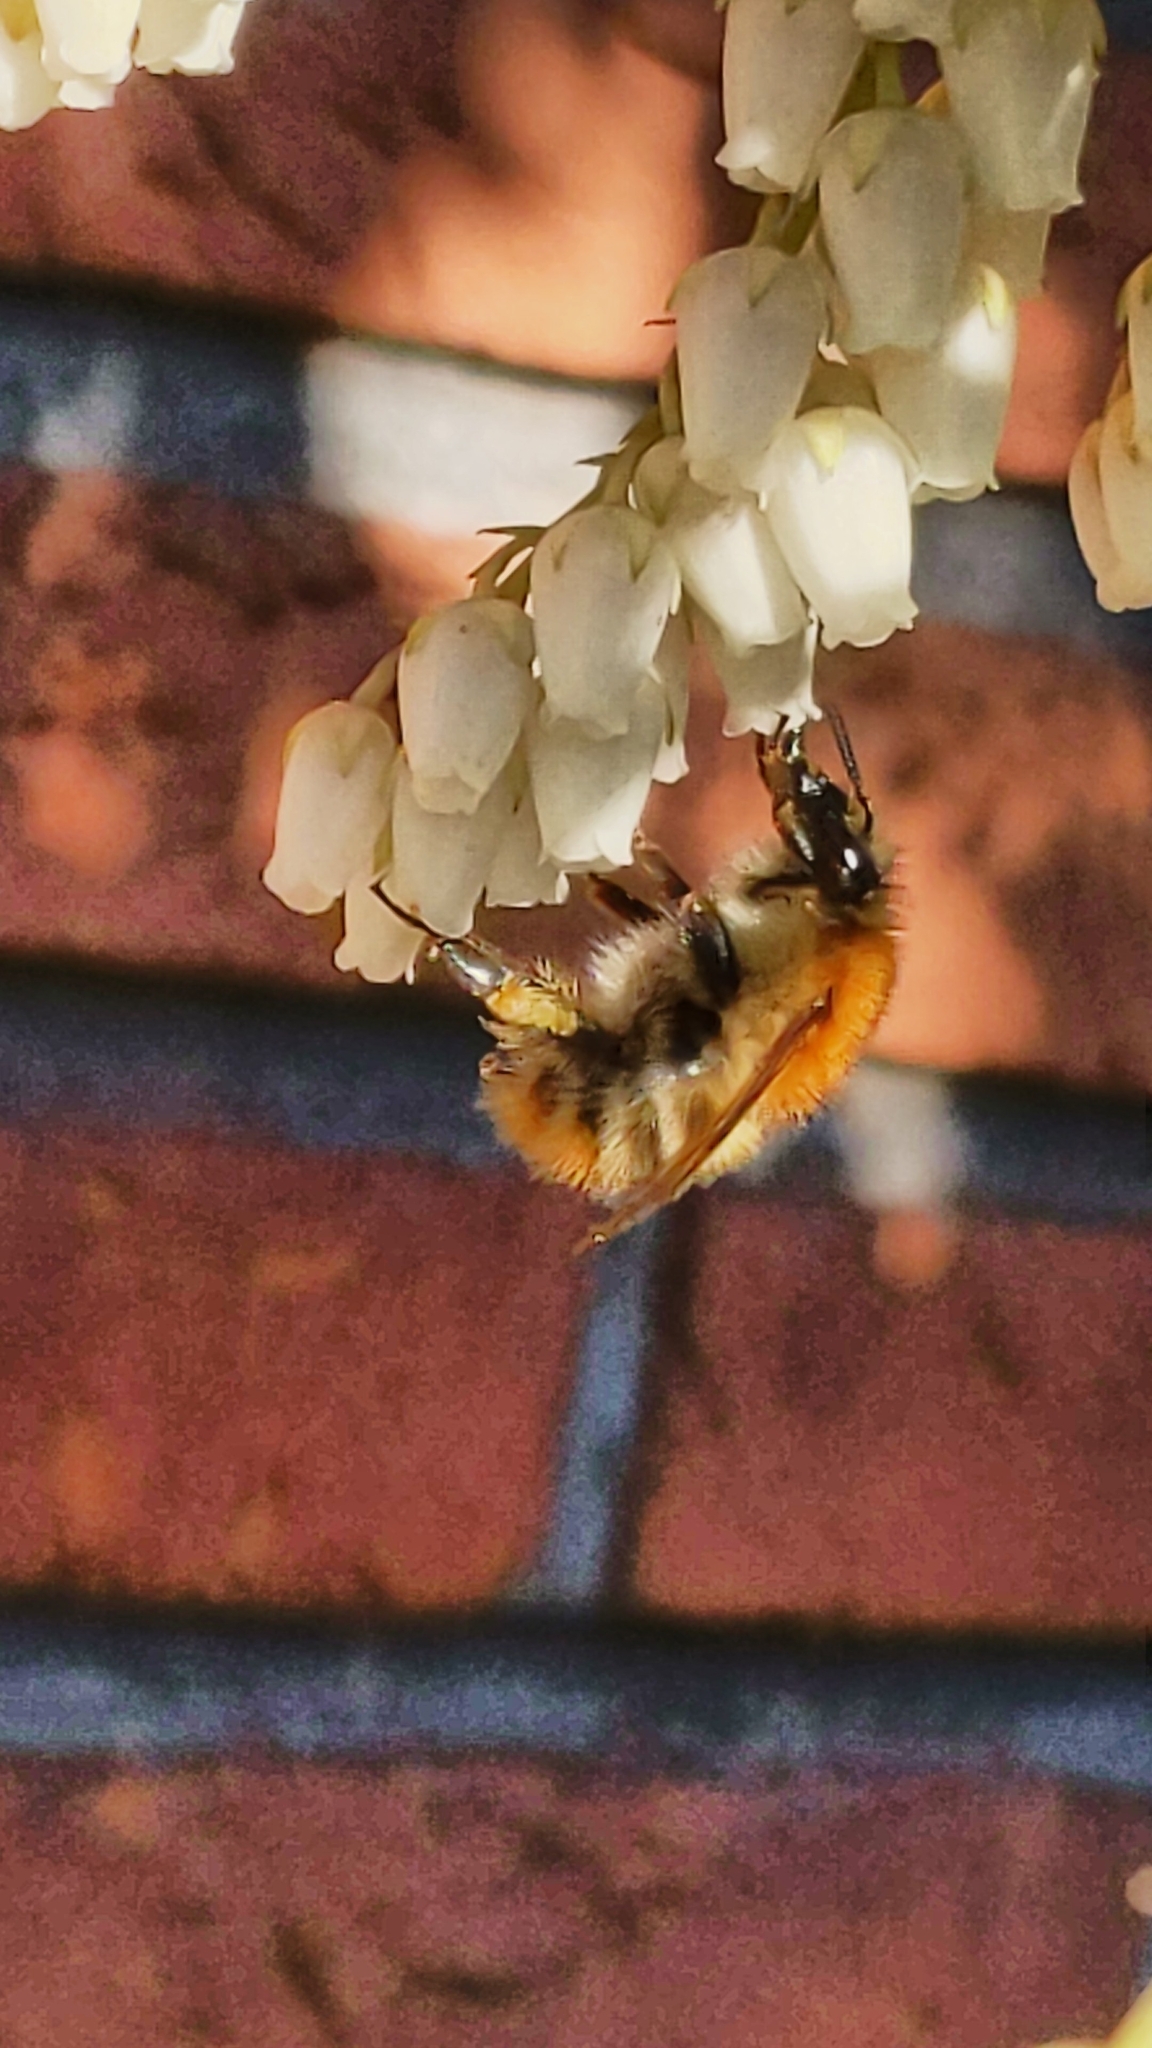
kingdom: Animalia
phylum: Arthropoda
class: Insecta
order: Hymenoptera
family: Apidae
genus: Bombus
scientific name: Bombus pascuorum
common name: Common carder bee
